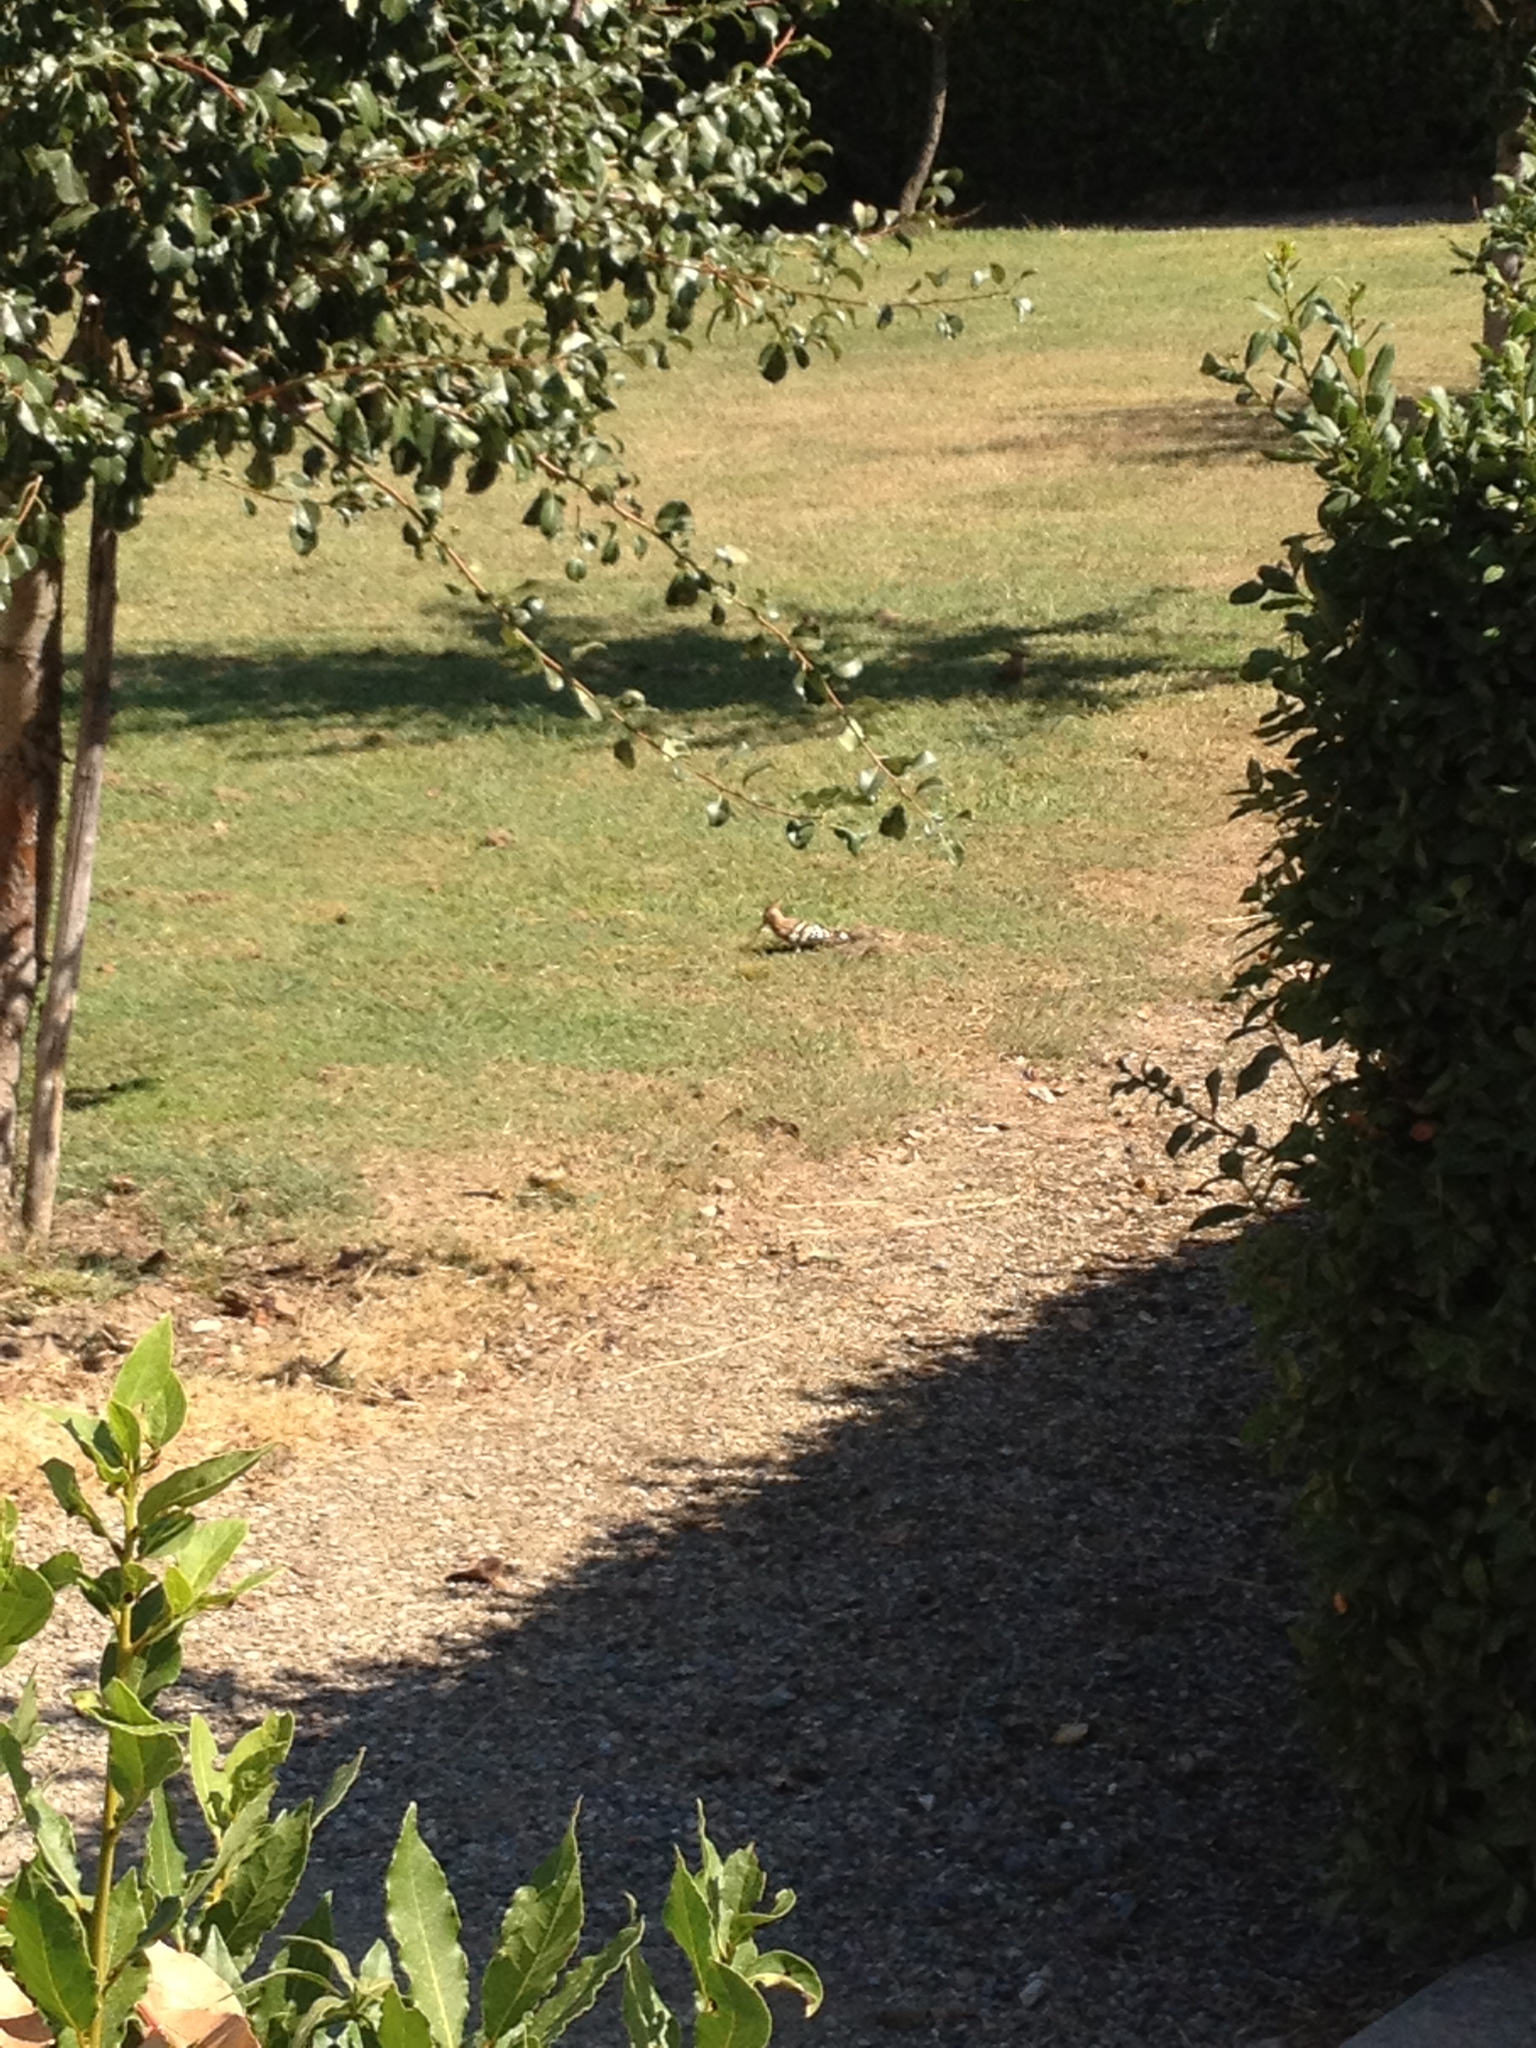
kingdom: Animalia
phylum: Chordata
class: Aves
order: Bucerotiformes
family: Upupidae
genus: Upupa
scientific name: Upupa epops
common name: Eurasian hoopoe
